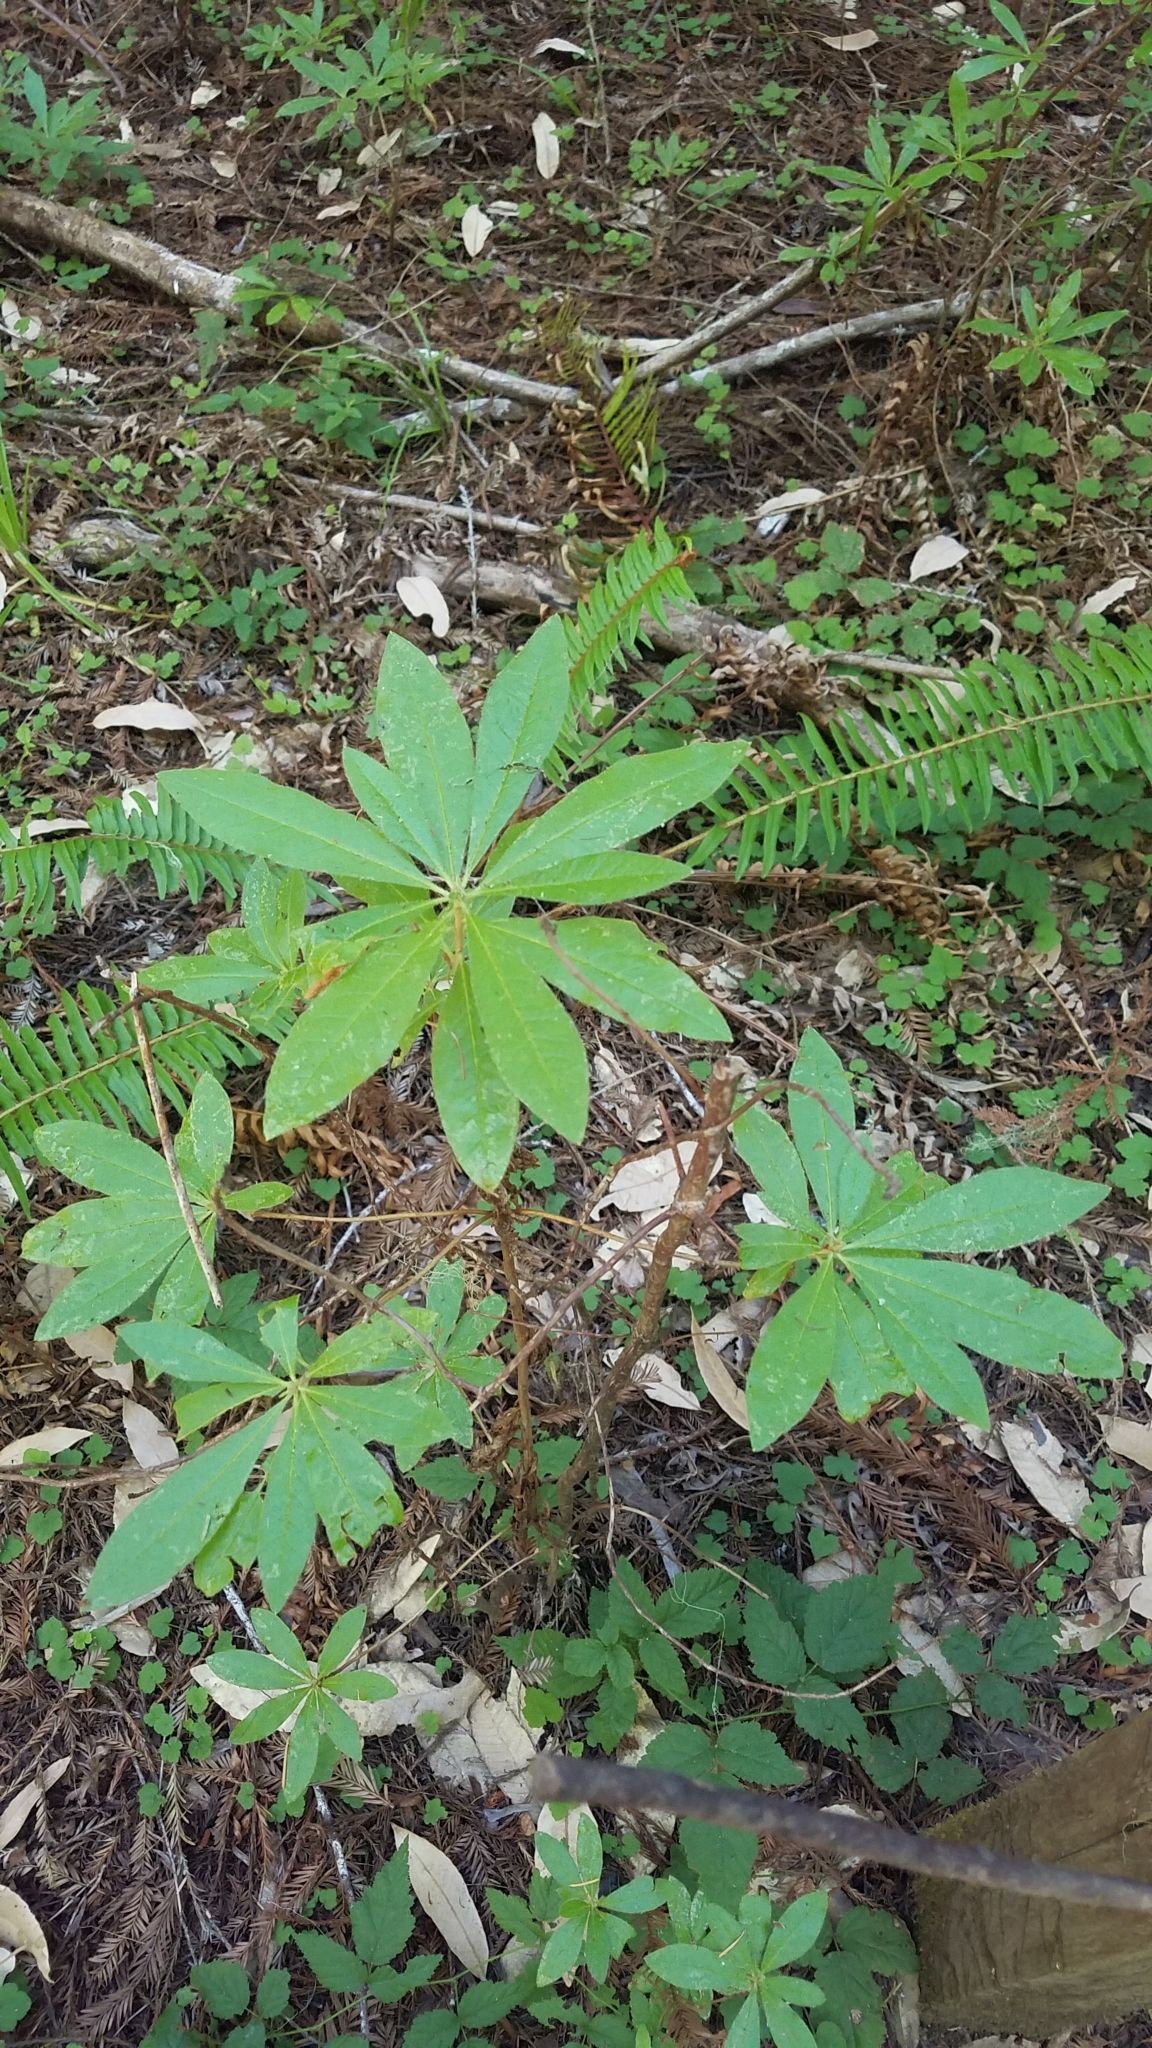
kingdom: Plantae
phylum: Tracheophyta
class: Magnoliopsida
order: Ericales
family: Ericaceae
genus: Rhododendron
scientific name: Rhododendron occidentale
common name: Western azalea
